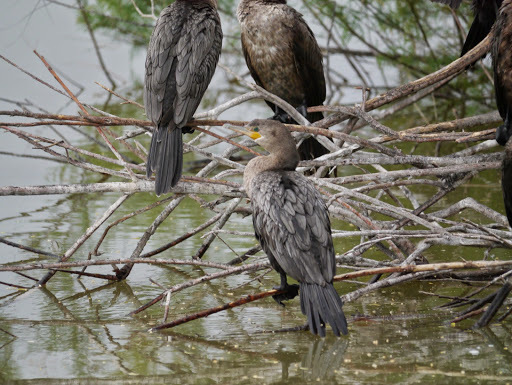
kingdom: Animalia
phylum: Chordata
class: Aves
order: Suliformes
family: Phalacrocoracidae
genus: Phalacrocorax
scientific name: Phalacrocorax brasilianus
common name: Neotropic cormorant
